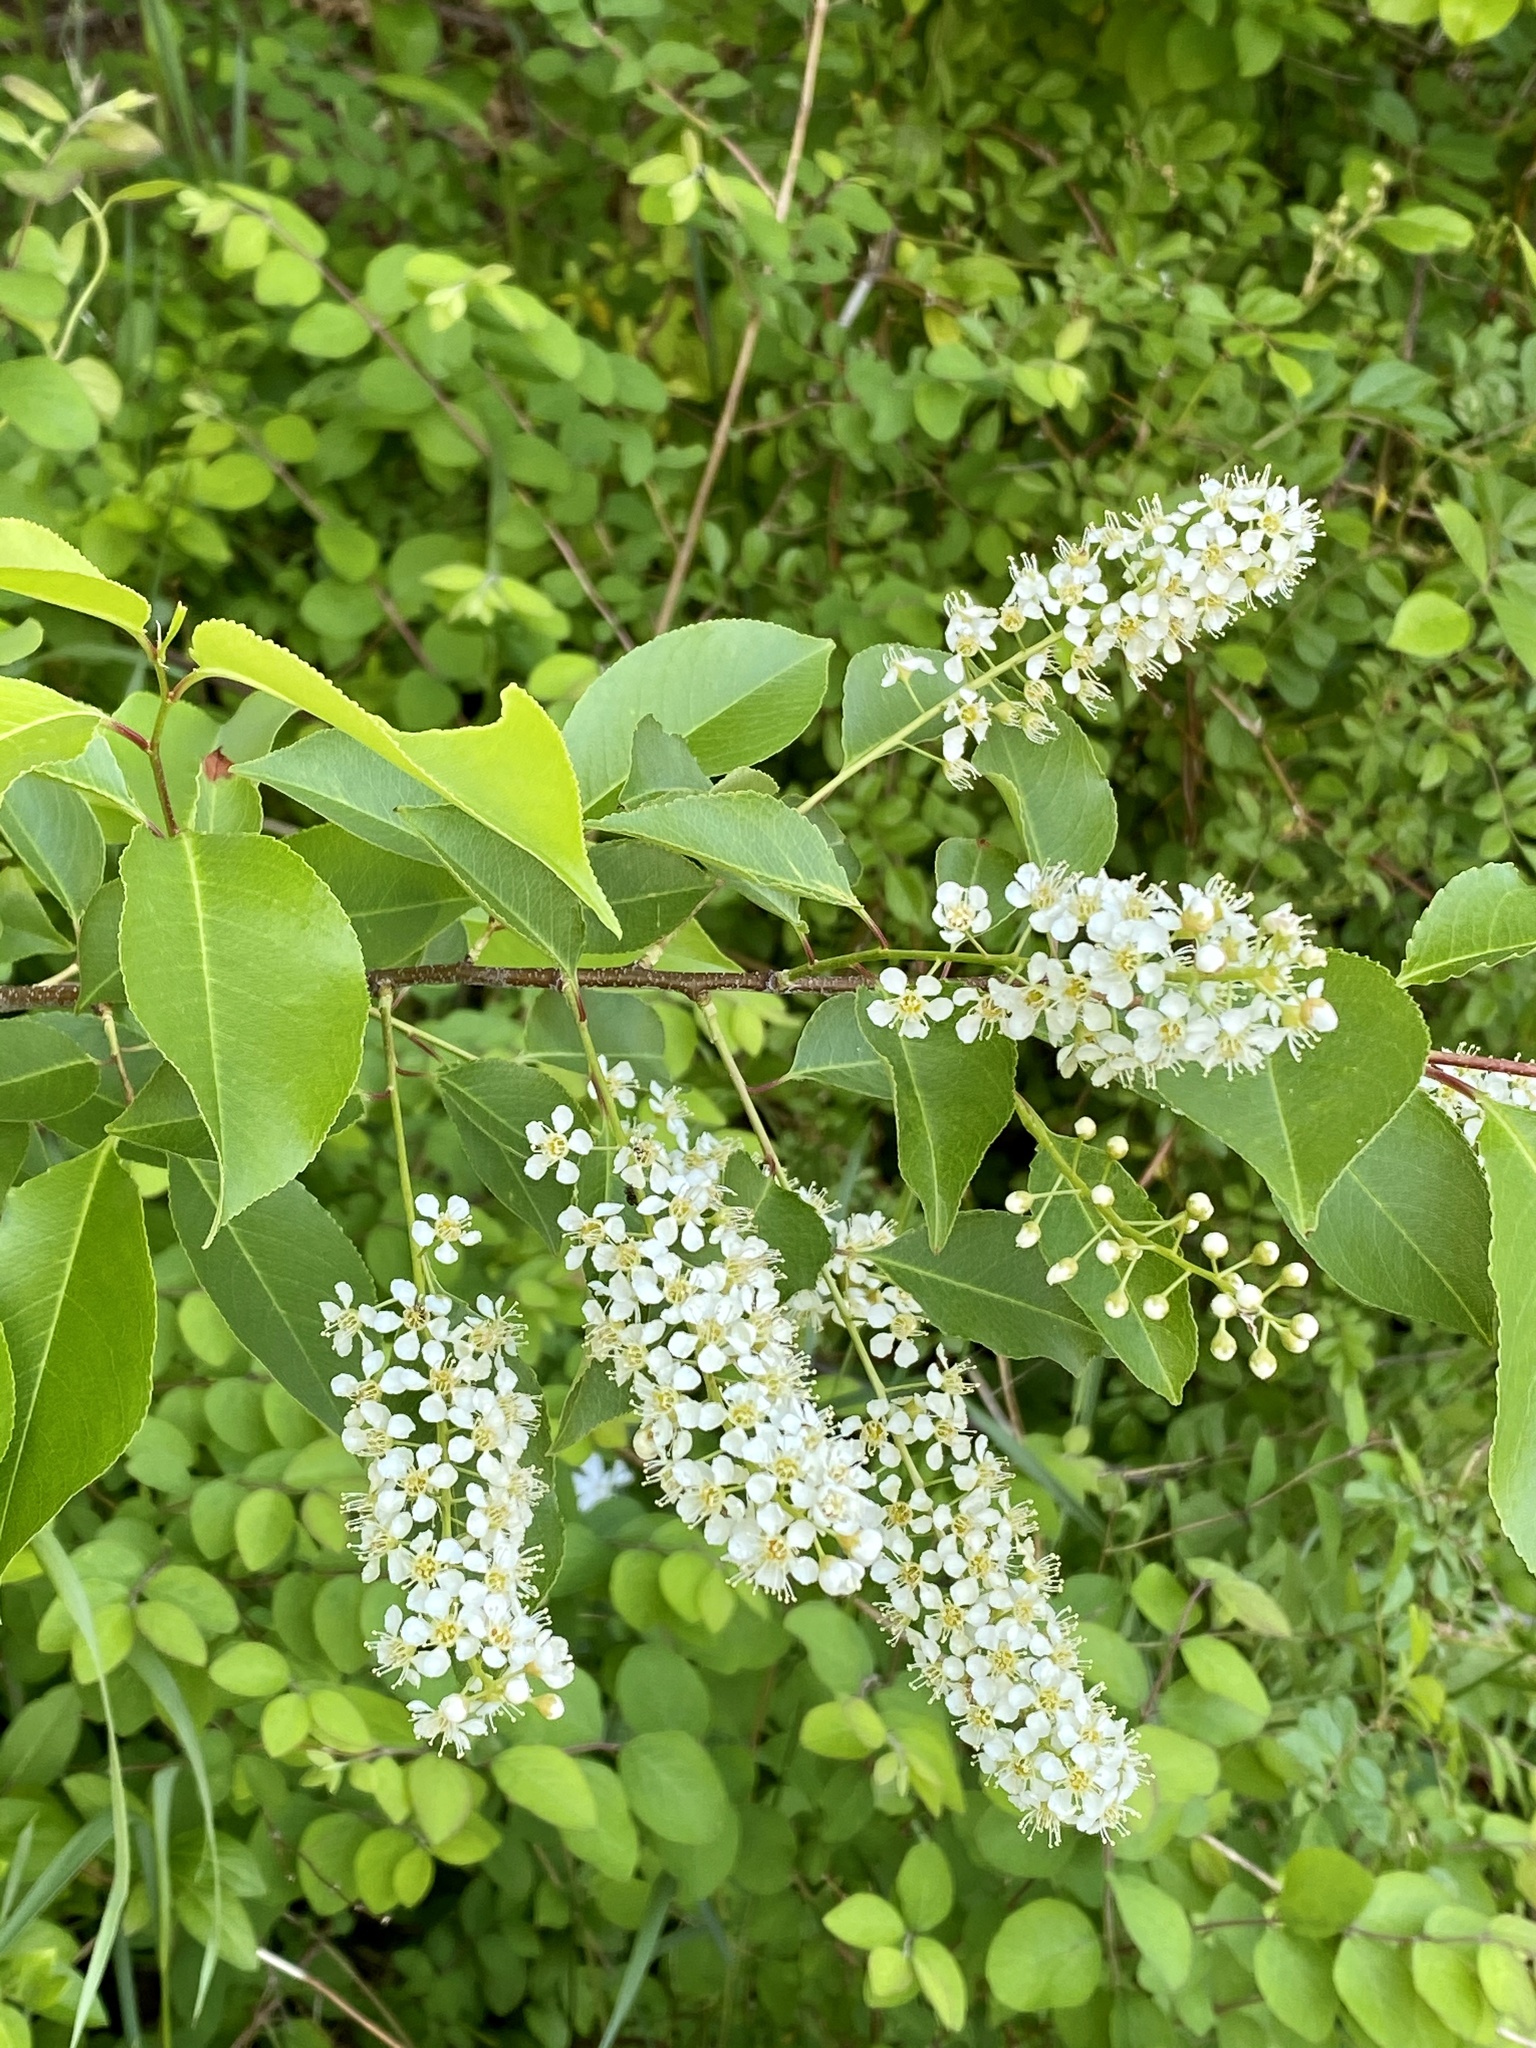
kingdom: Plantae
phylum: Tracheophyta
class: Magnoliopsida
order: Rosales
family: Rosaceae
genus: Prunus
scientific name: Prunus serotina
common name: Black cherry
